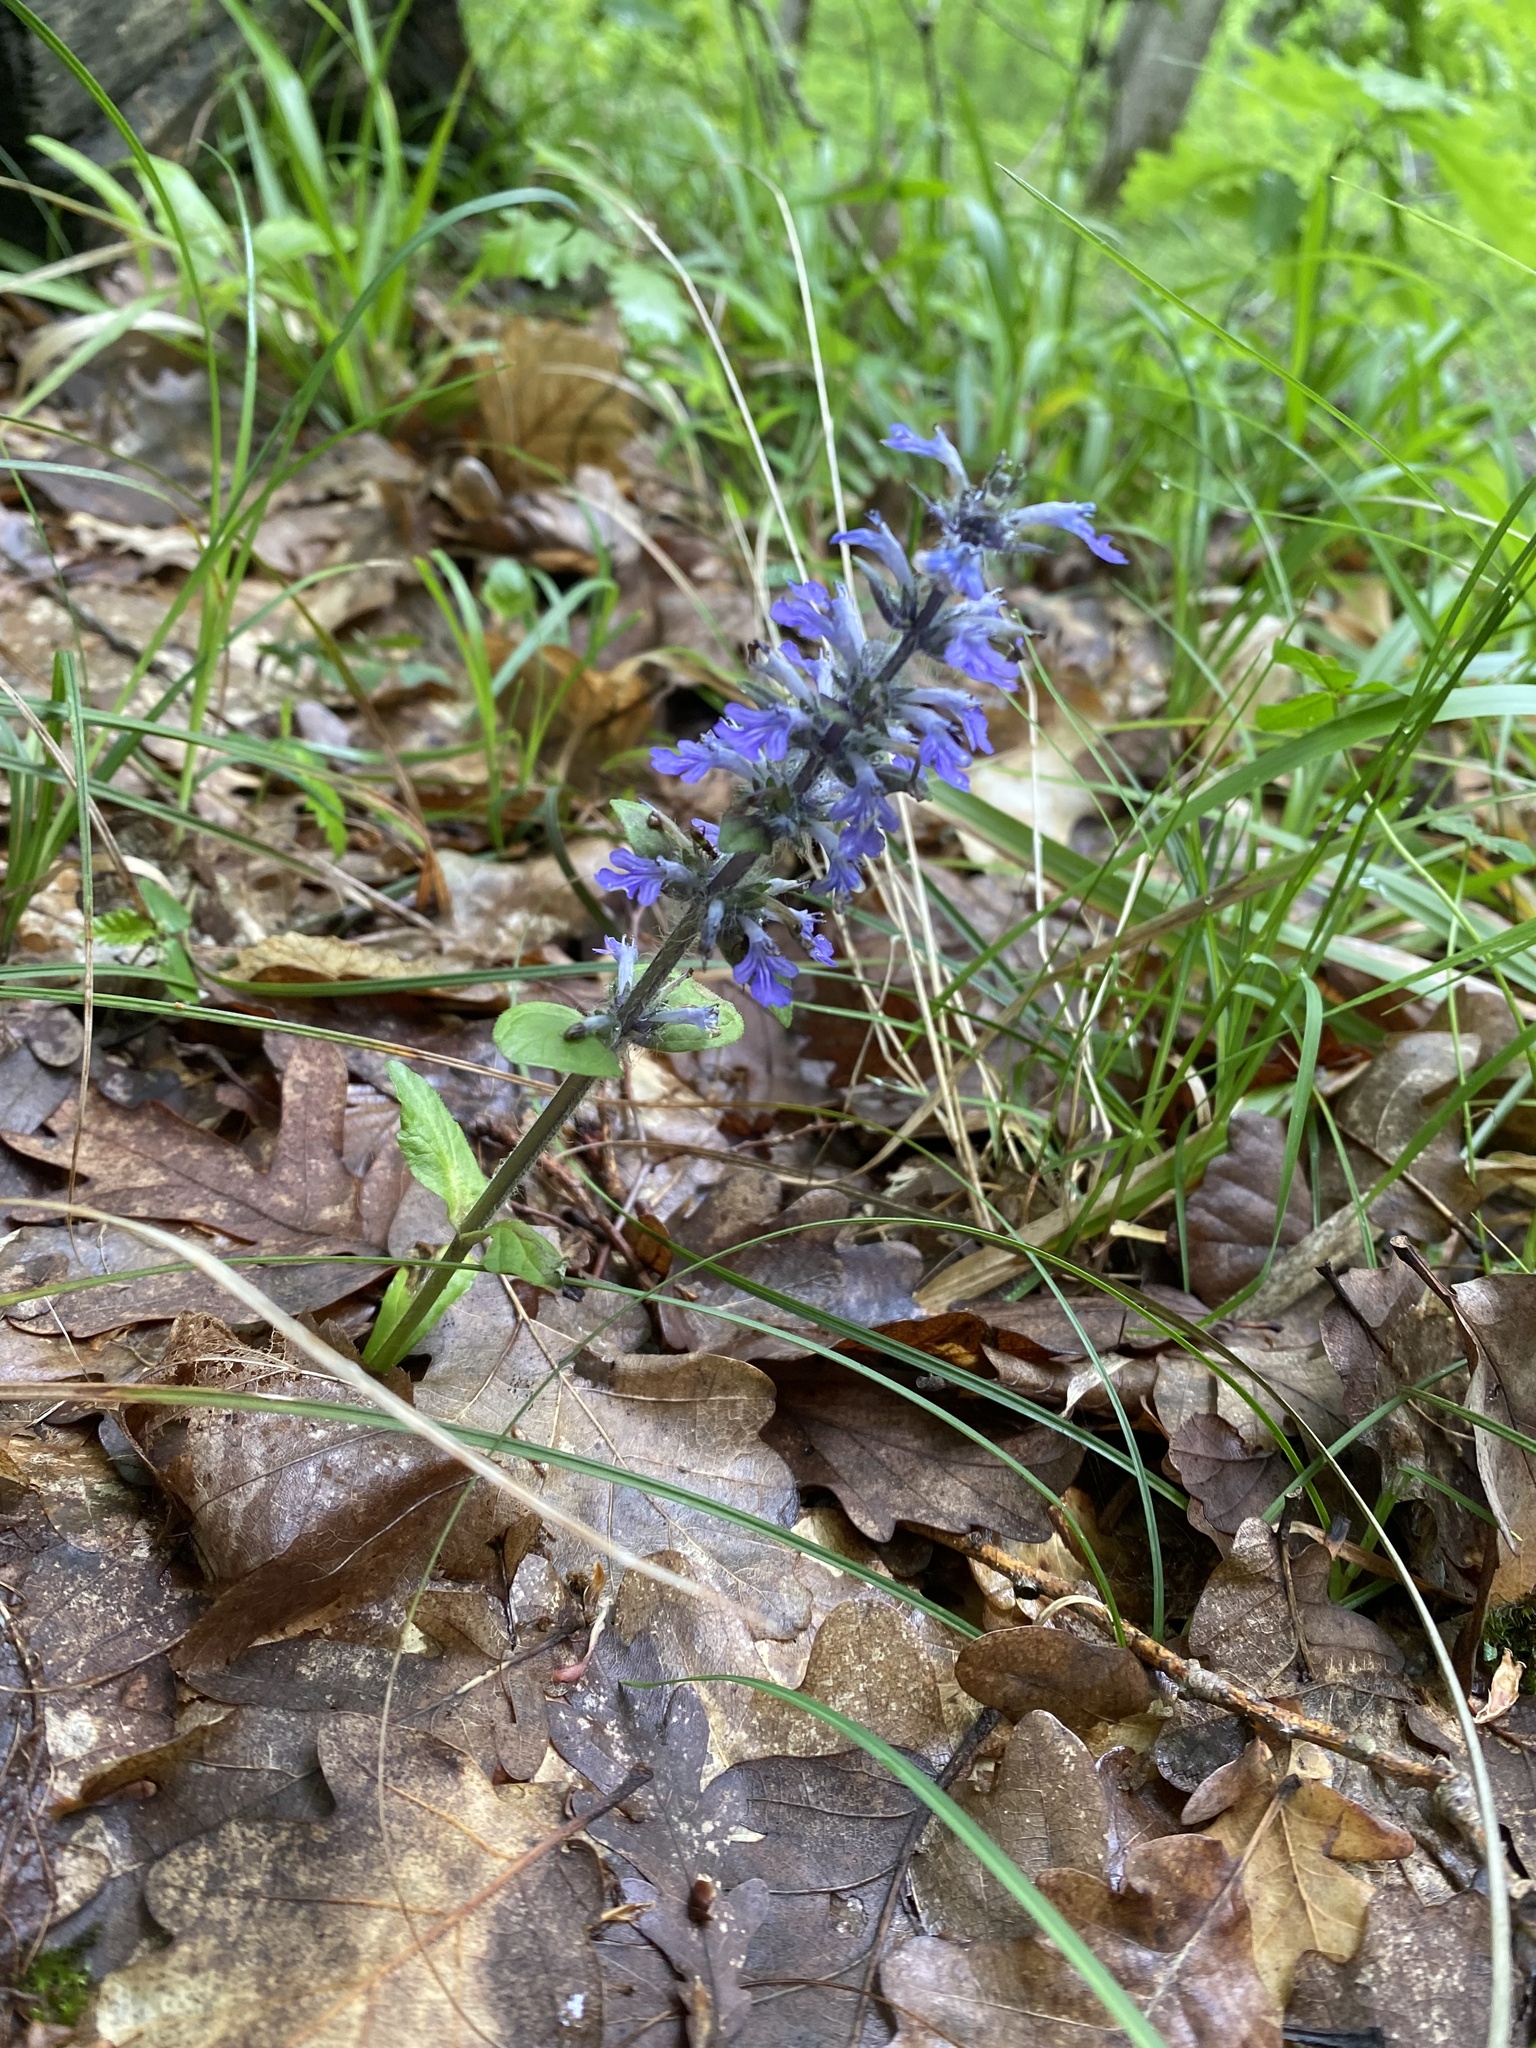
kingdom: Plantae
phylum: Tracheophyta
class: Magnoliopsida
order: Lamiales
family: Lamiaceae
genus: Ajuga
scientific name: Ajuga reptans
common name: Bugle
